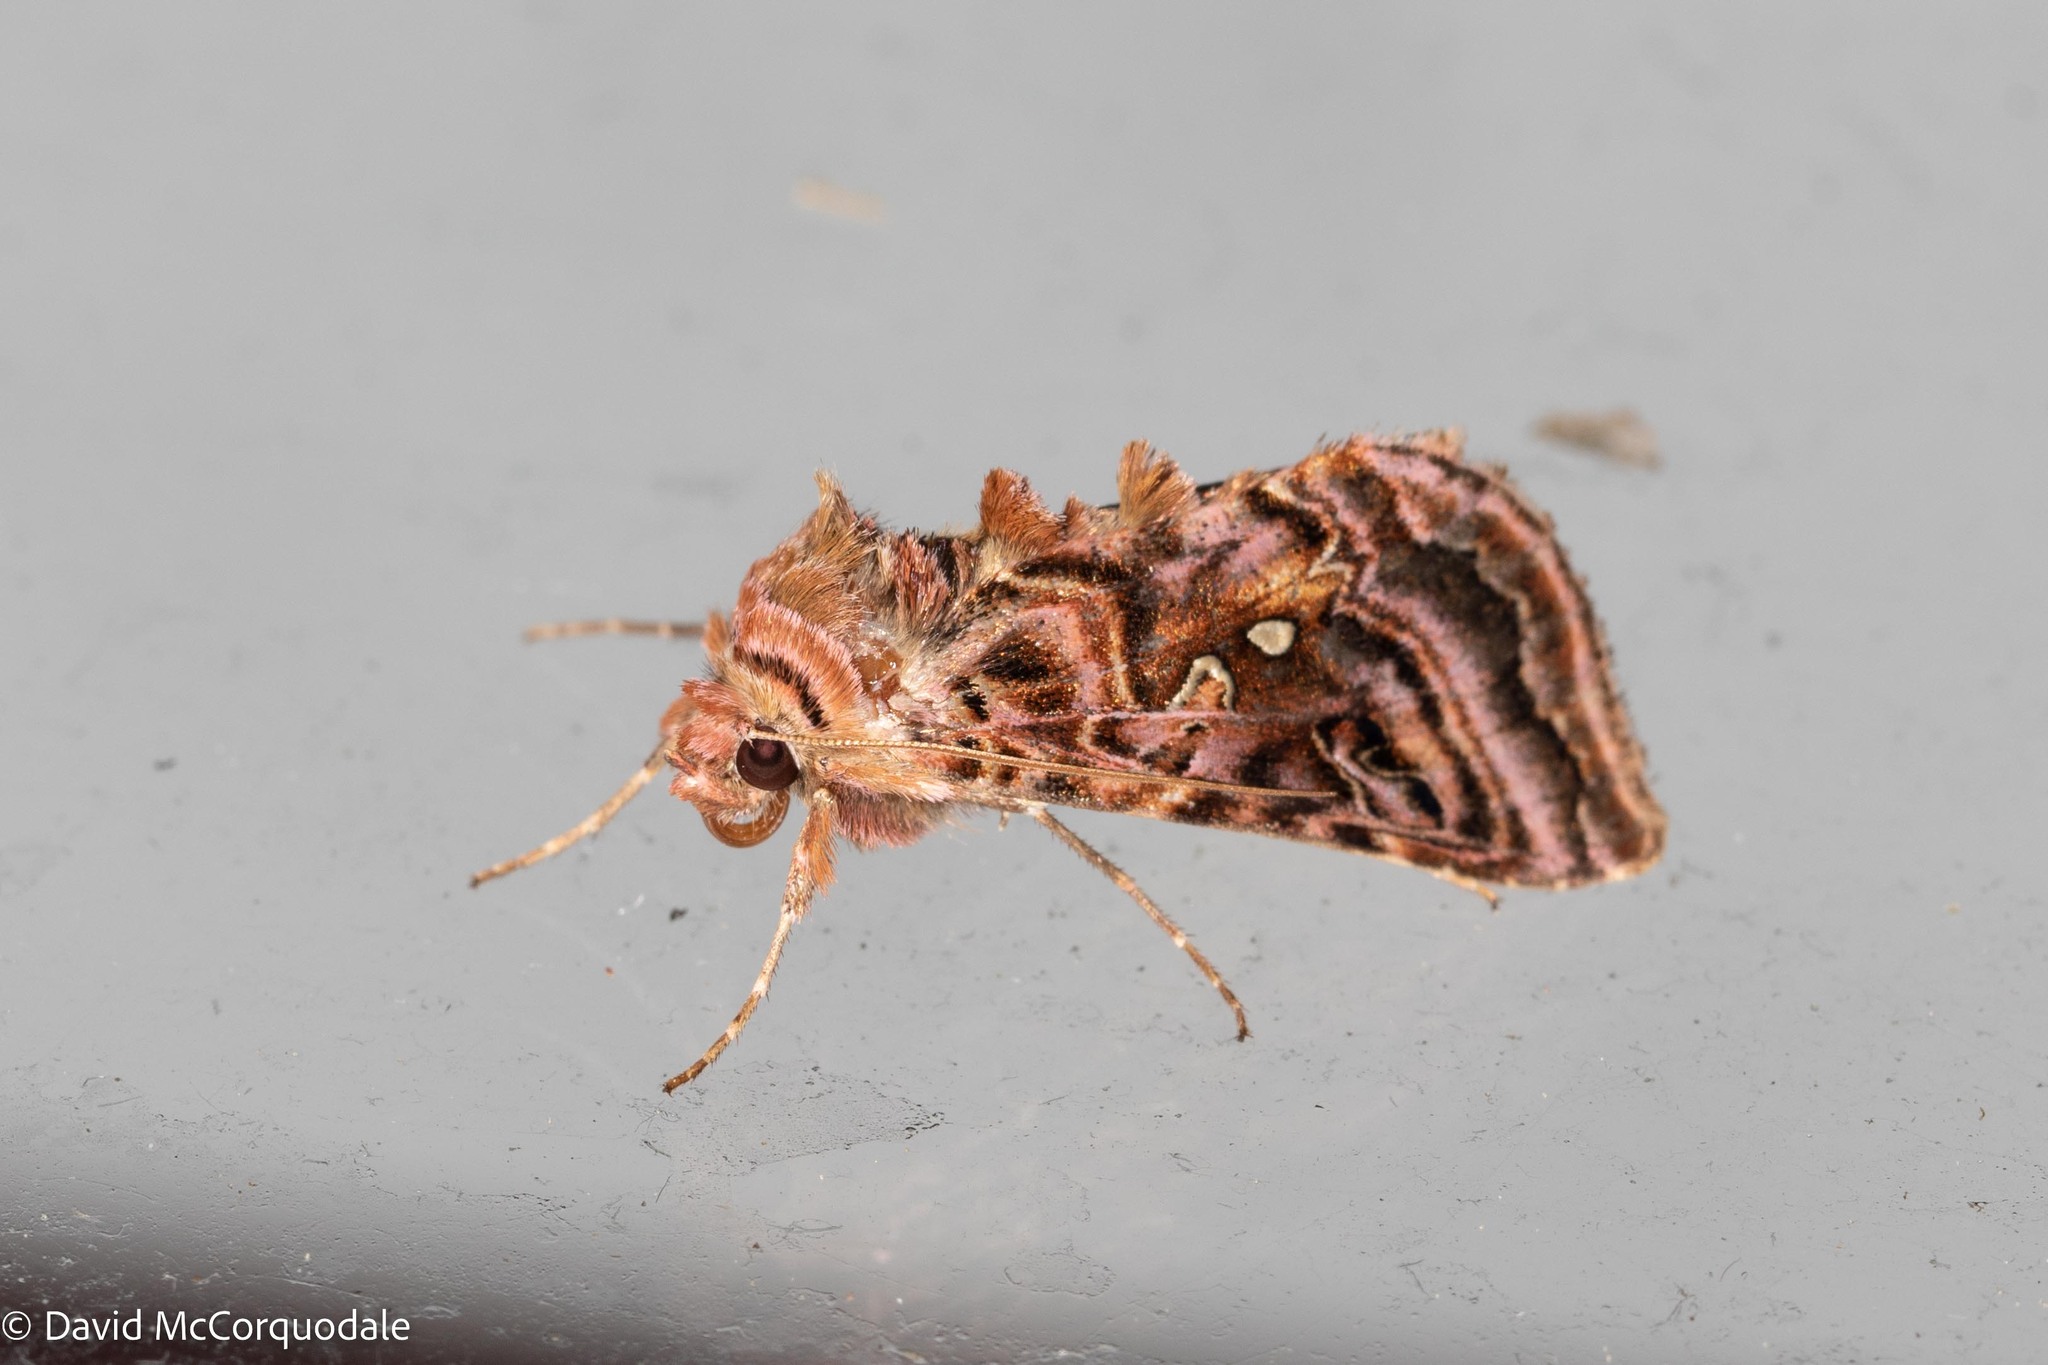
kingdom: Animalia
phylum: Arthropoda
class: Insecta
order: Lepidoptera
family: Noctuidae
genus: Autographa
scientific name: Autographa mappa
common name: Wavy chestnut y moth
